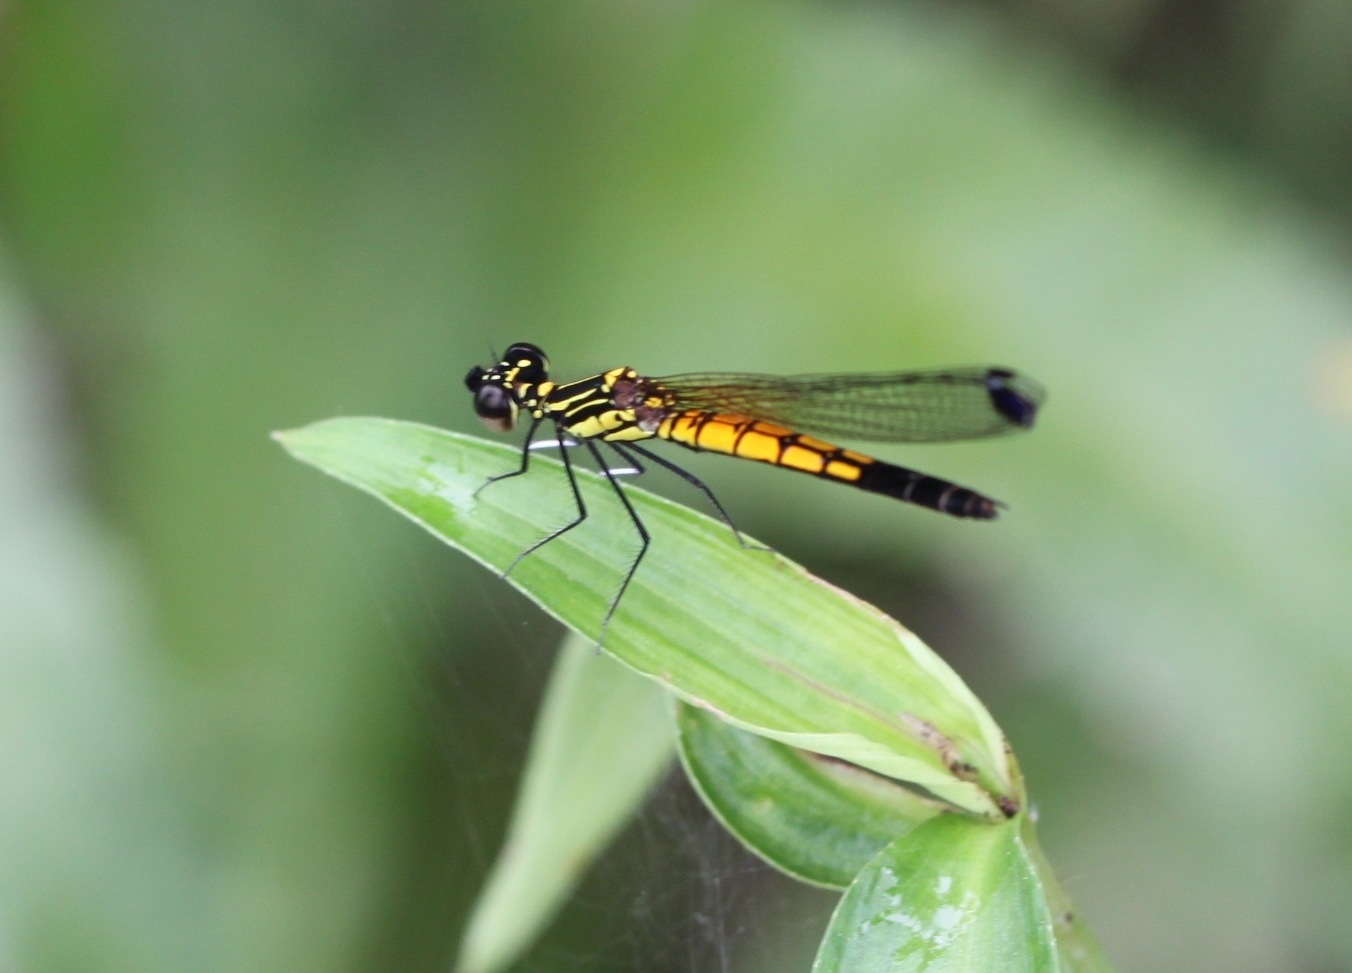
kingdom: Animalia
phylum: Arthropoda
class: Insecta
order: Odonata
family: Chlorocyphidae
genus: Libellago
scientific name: Libellago lineata
